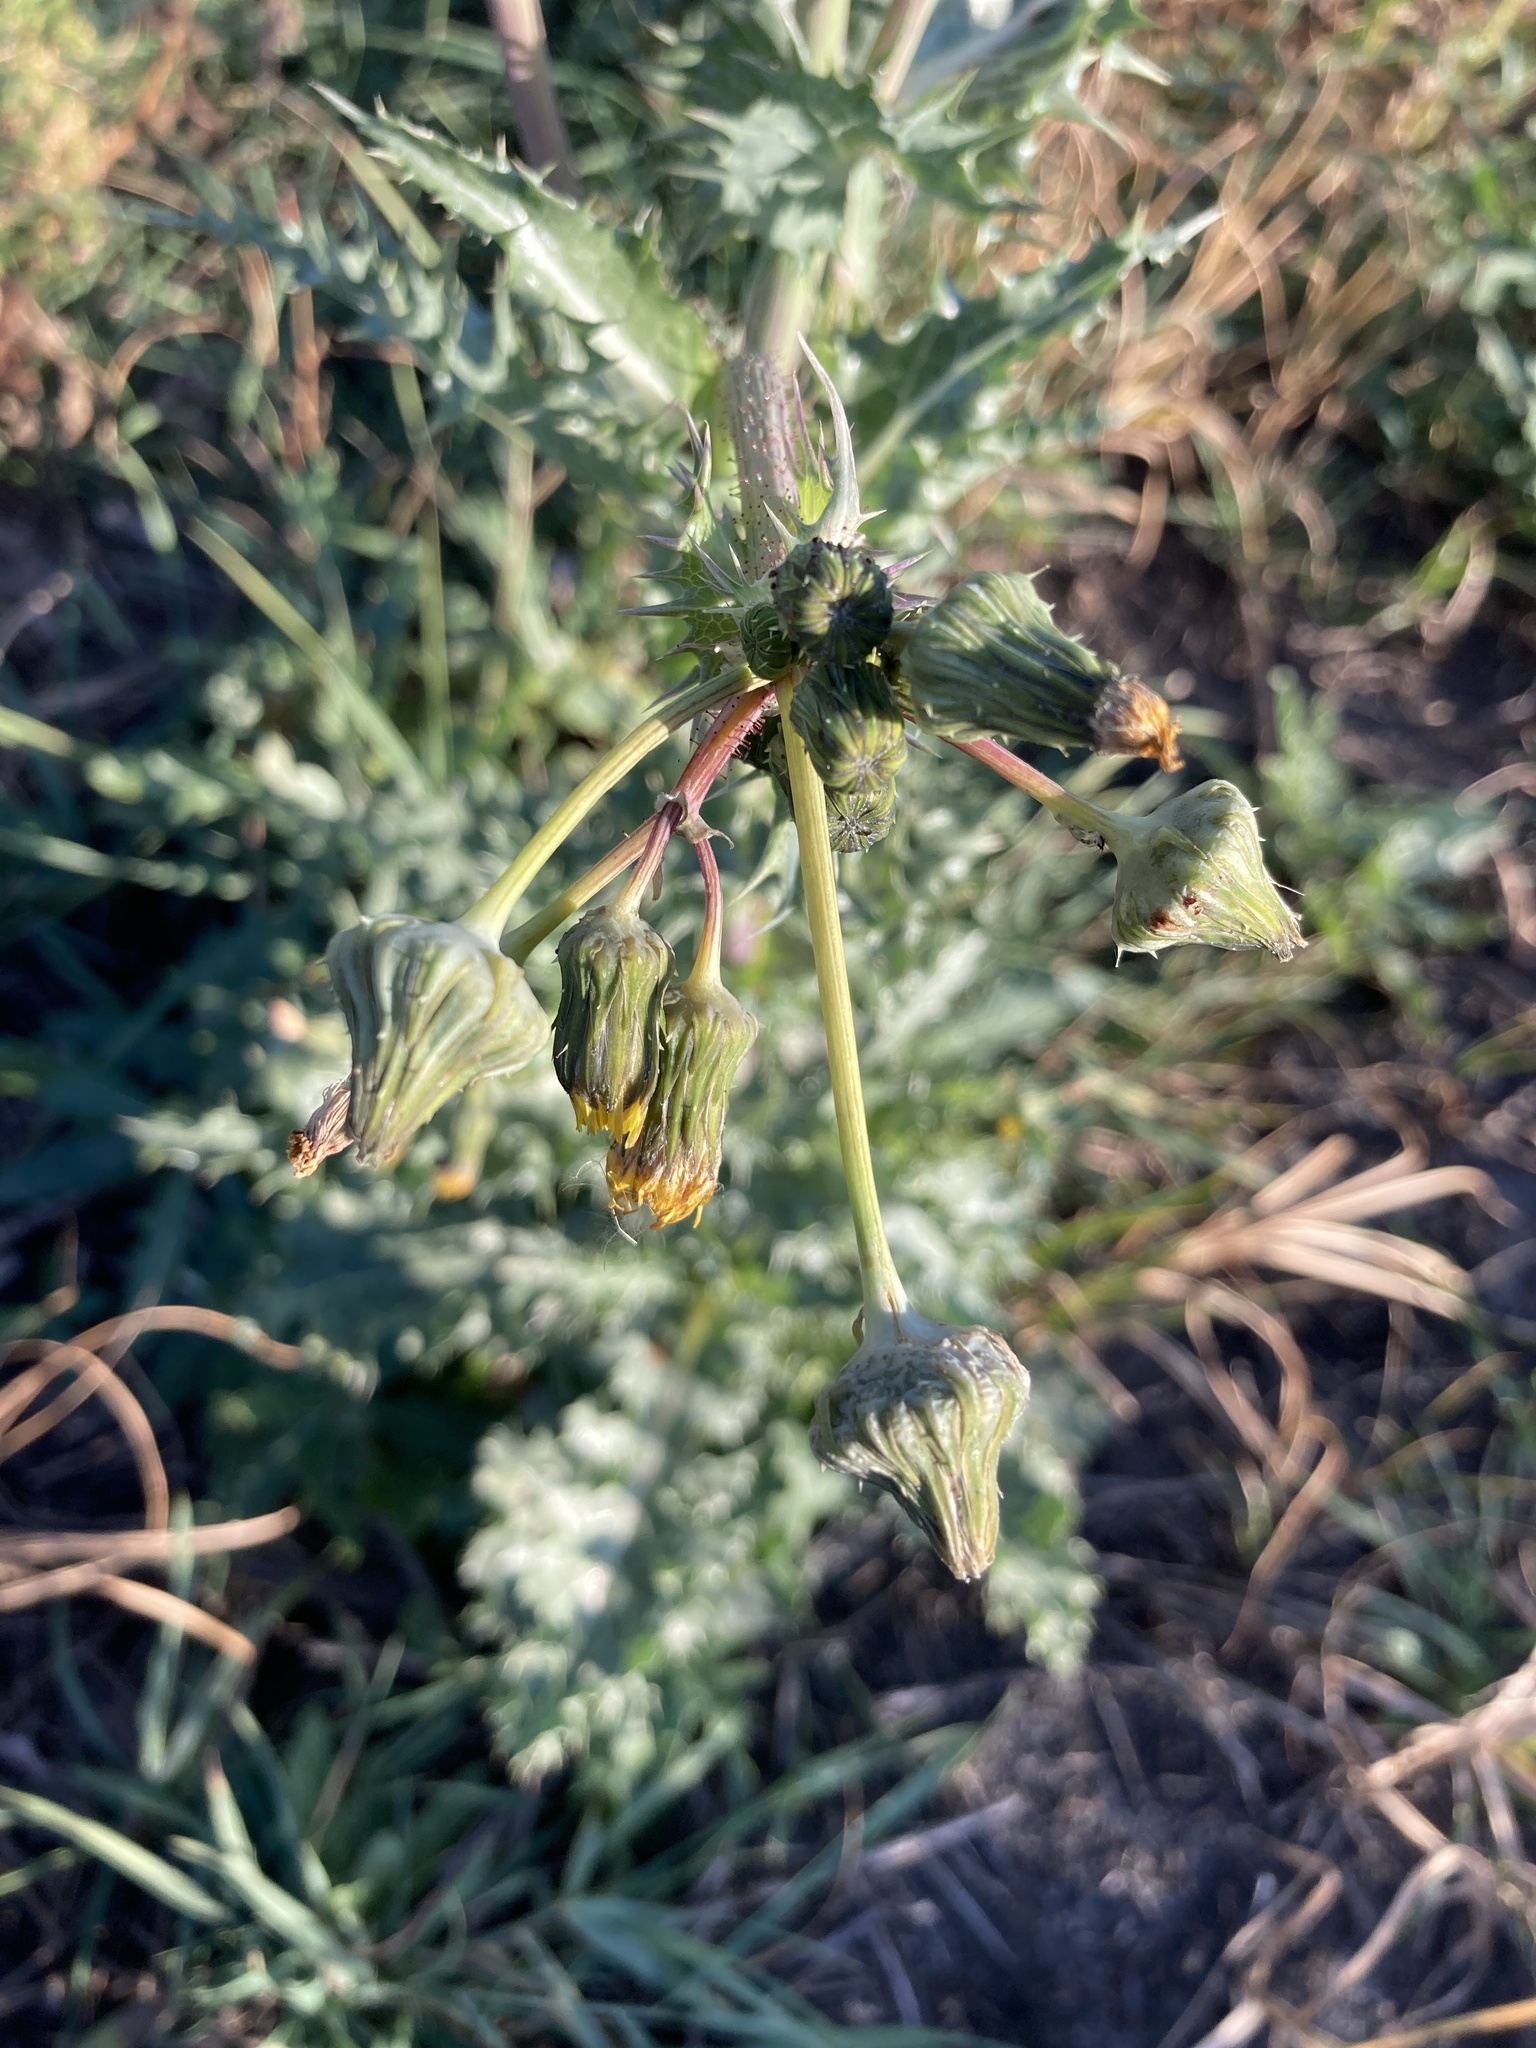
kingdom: Plantae
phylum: Tracheophyta
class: Magnoliopsida
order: Asterales
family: Asteraceae
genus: Sonchus
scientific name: Sonchus asper
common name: Prickly sow-thistle
